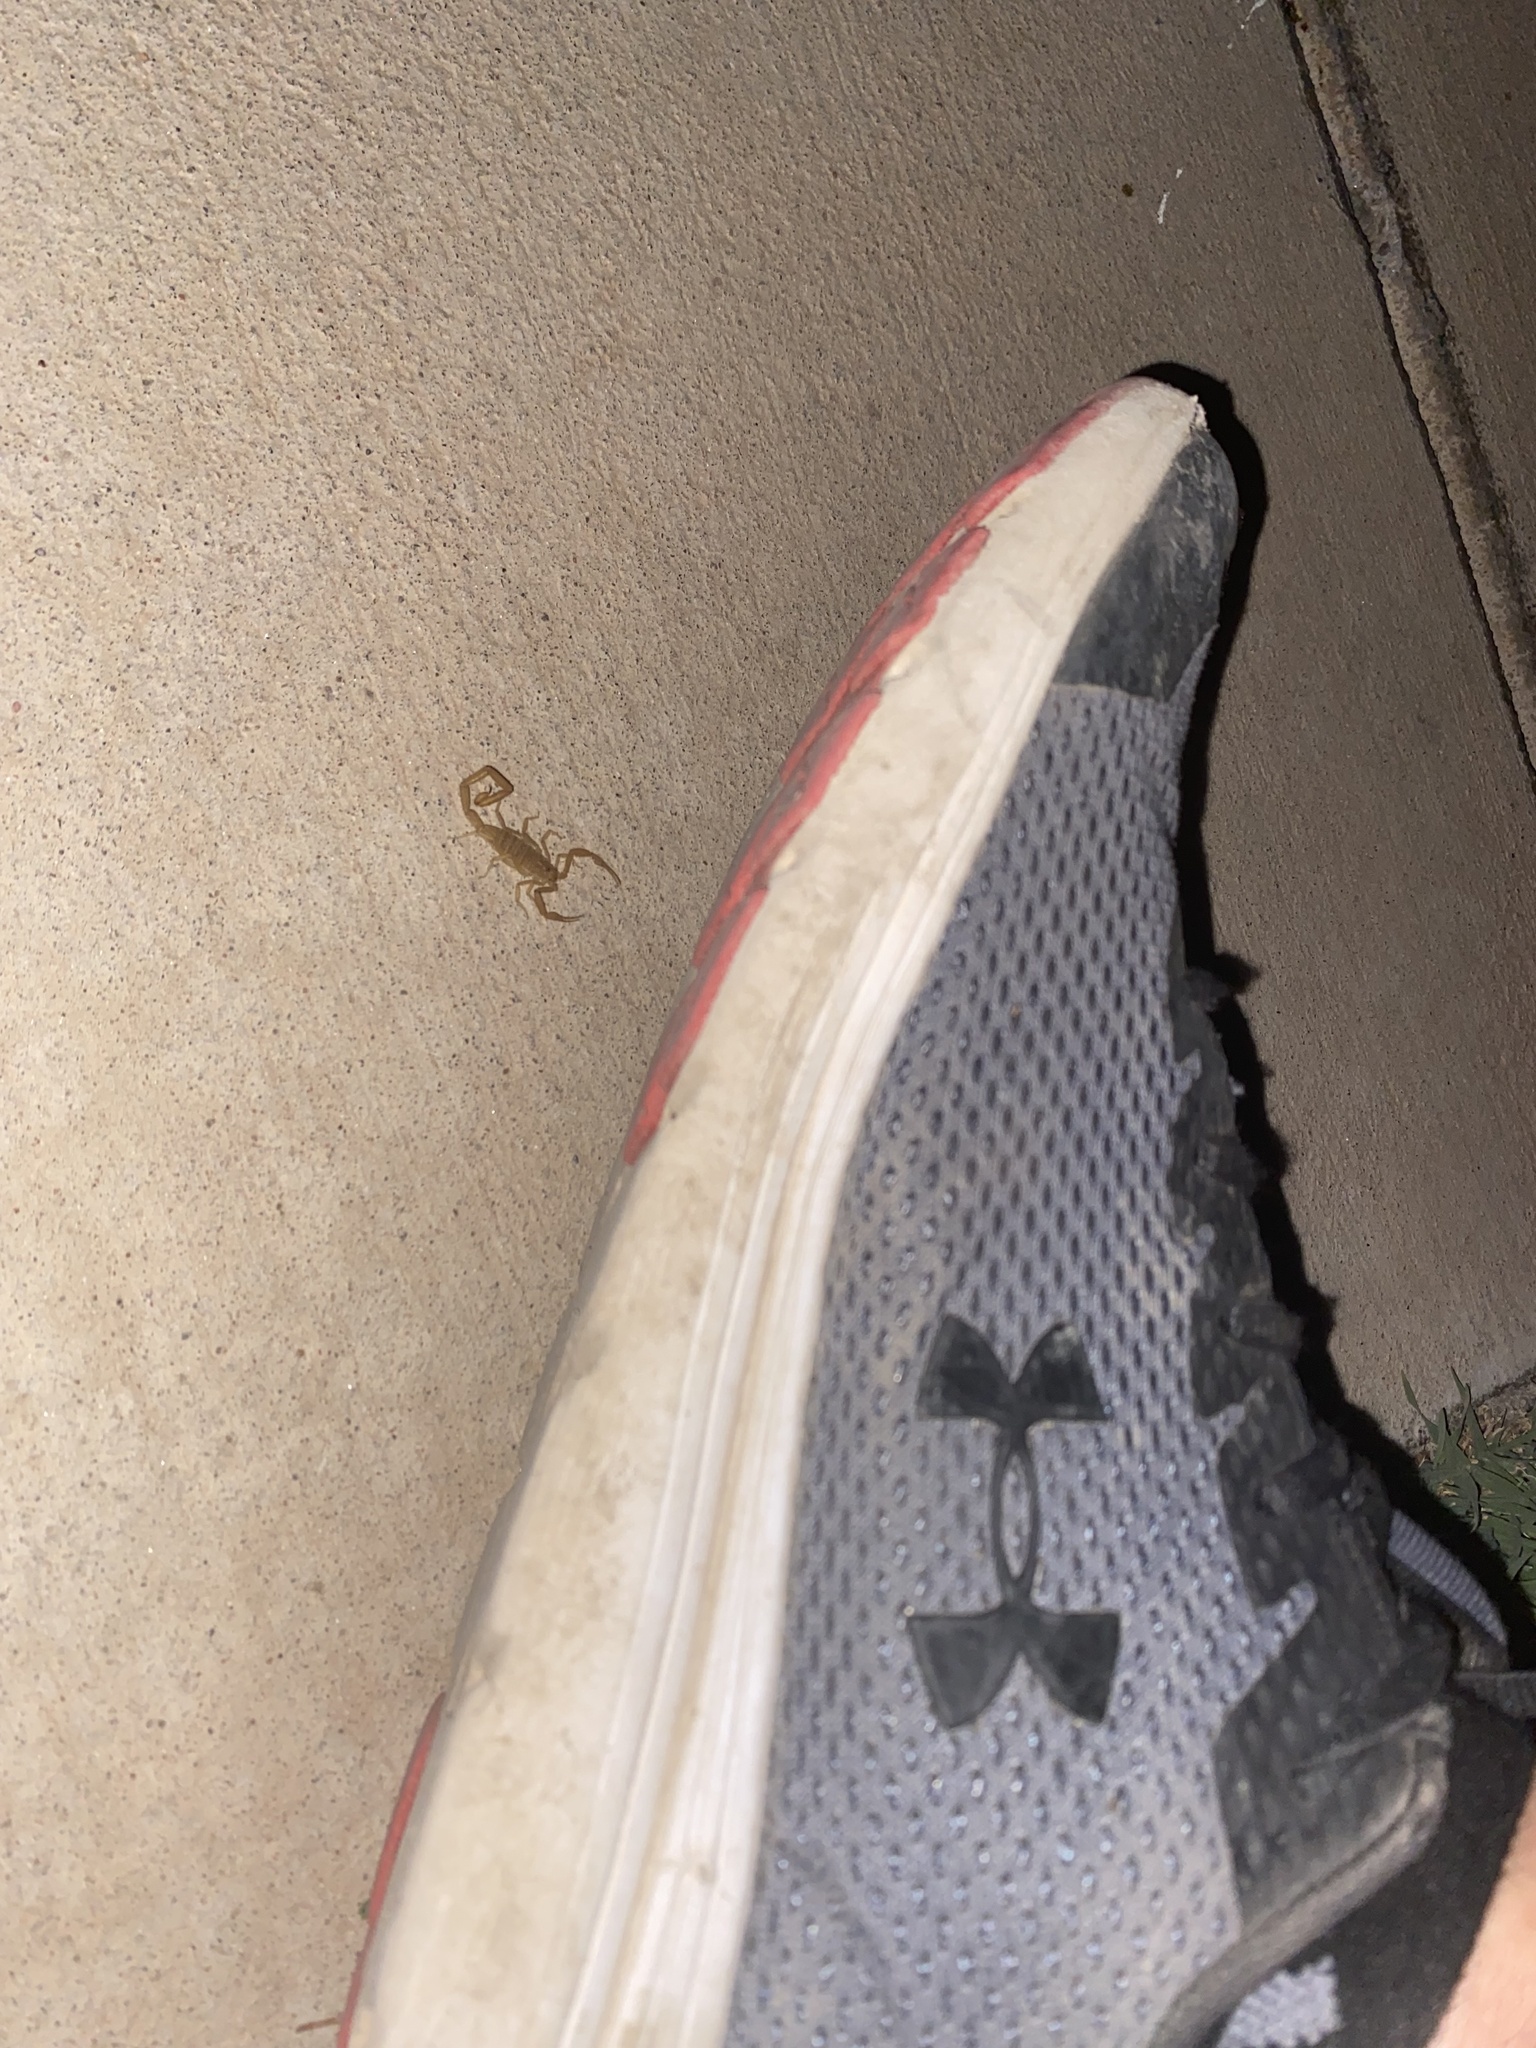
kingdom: Animalia
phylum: Arthropoda
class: Arachnida
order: Scorpiones
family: Buthidae
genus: Centruroides
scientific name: Centruroides sculpturatus
